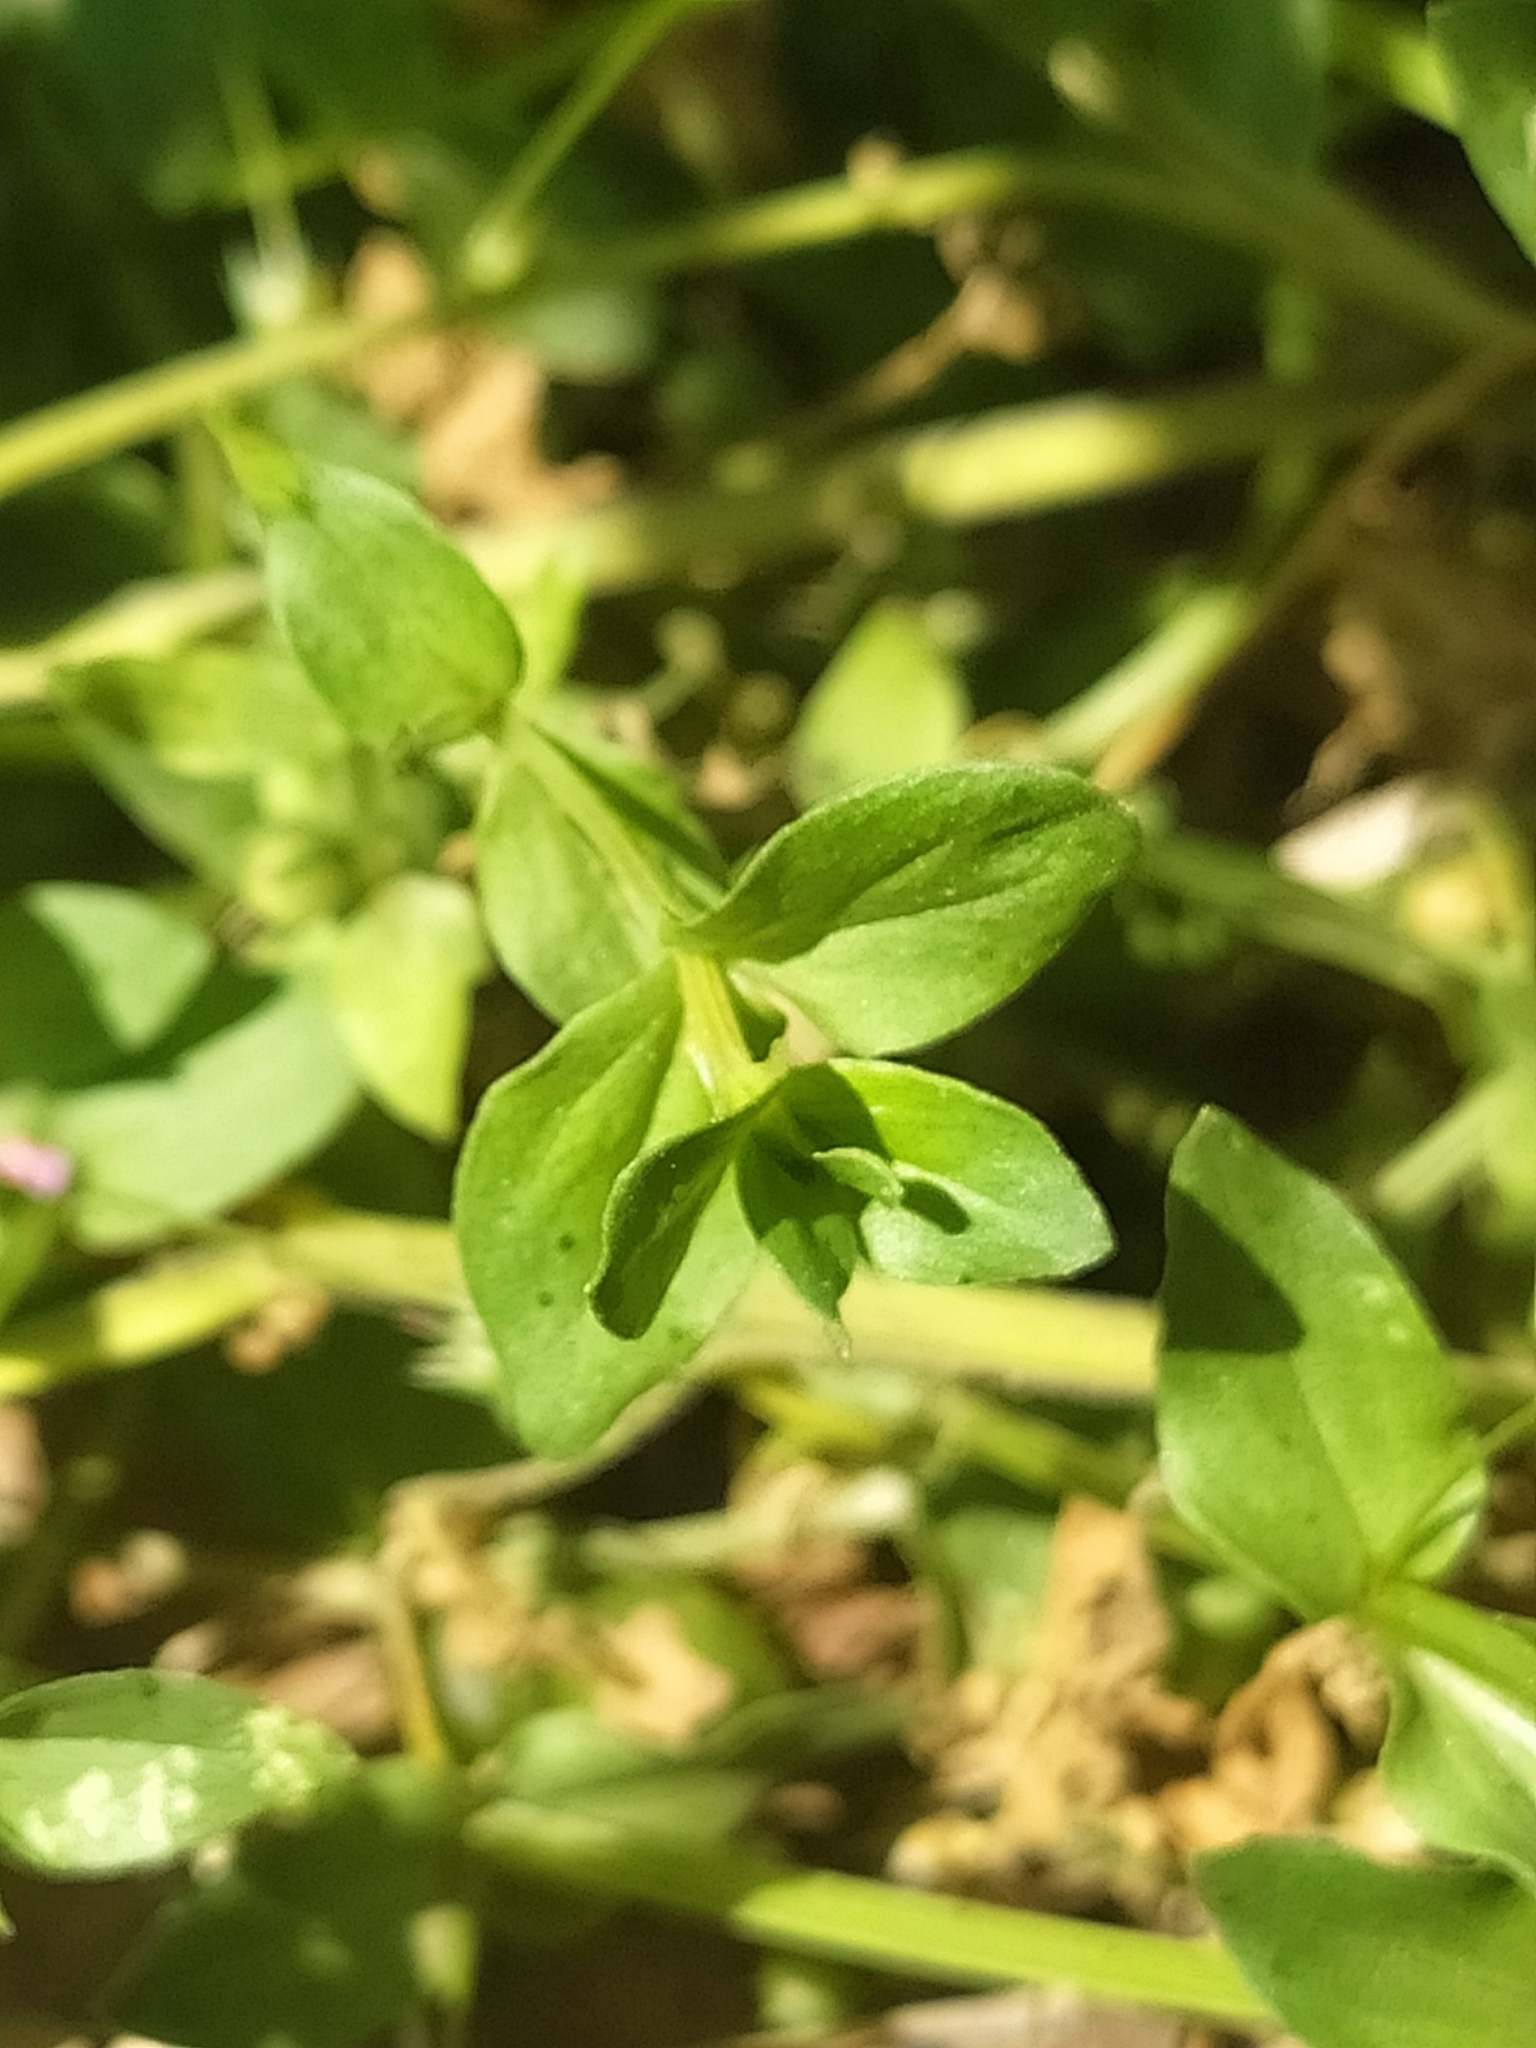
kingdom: Plantae
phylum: Tracheophyta
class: Magnoliopsida
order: Ericales
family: Primulaceae
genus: Lysimachia
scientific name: Lysimachia arvensis
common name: Scarlet pimpernel
